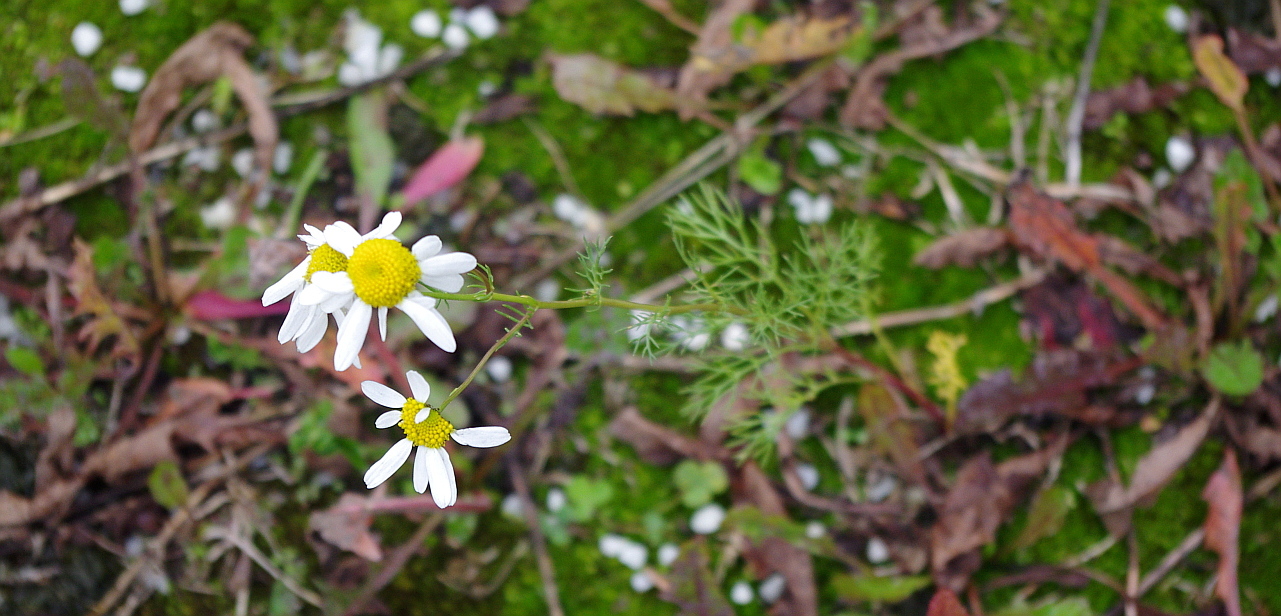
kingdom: Plantae
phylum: Tracheophyta
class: Magnoliopsida
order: Asterales
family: Asteraceae
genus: Tripleurospermum
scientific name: Tripleurospermum inodorum
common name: Scentless mayweed
